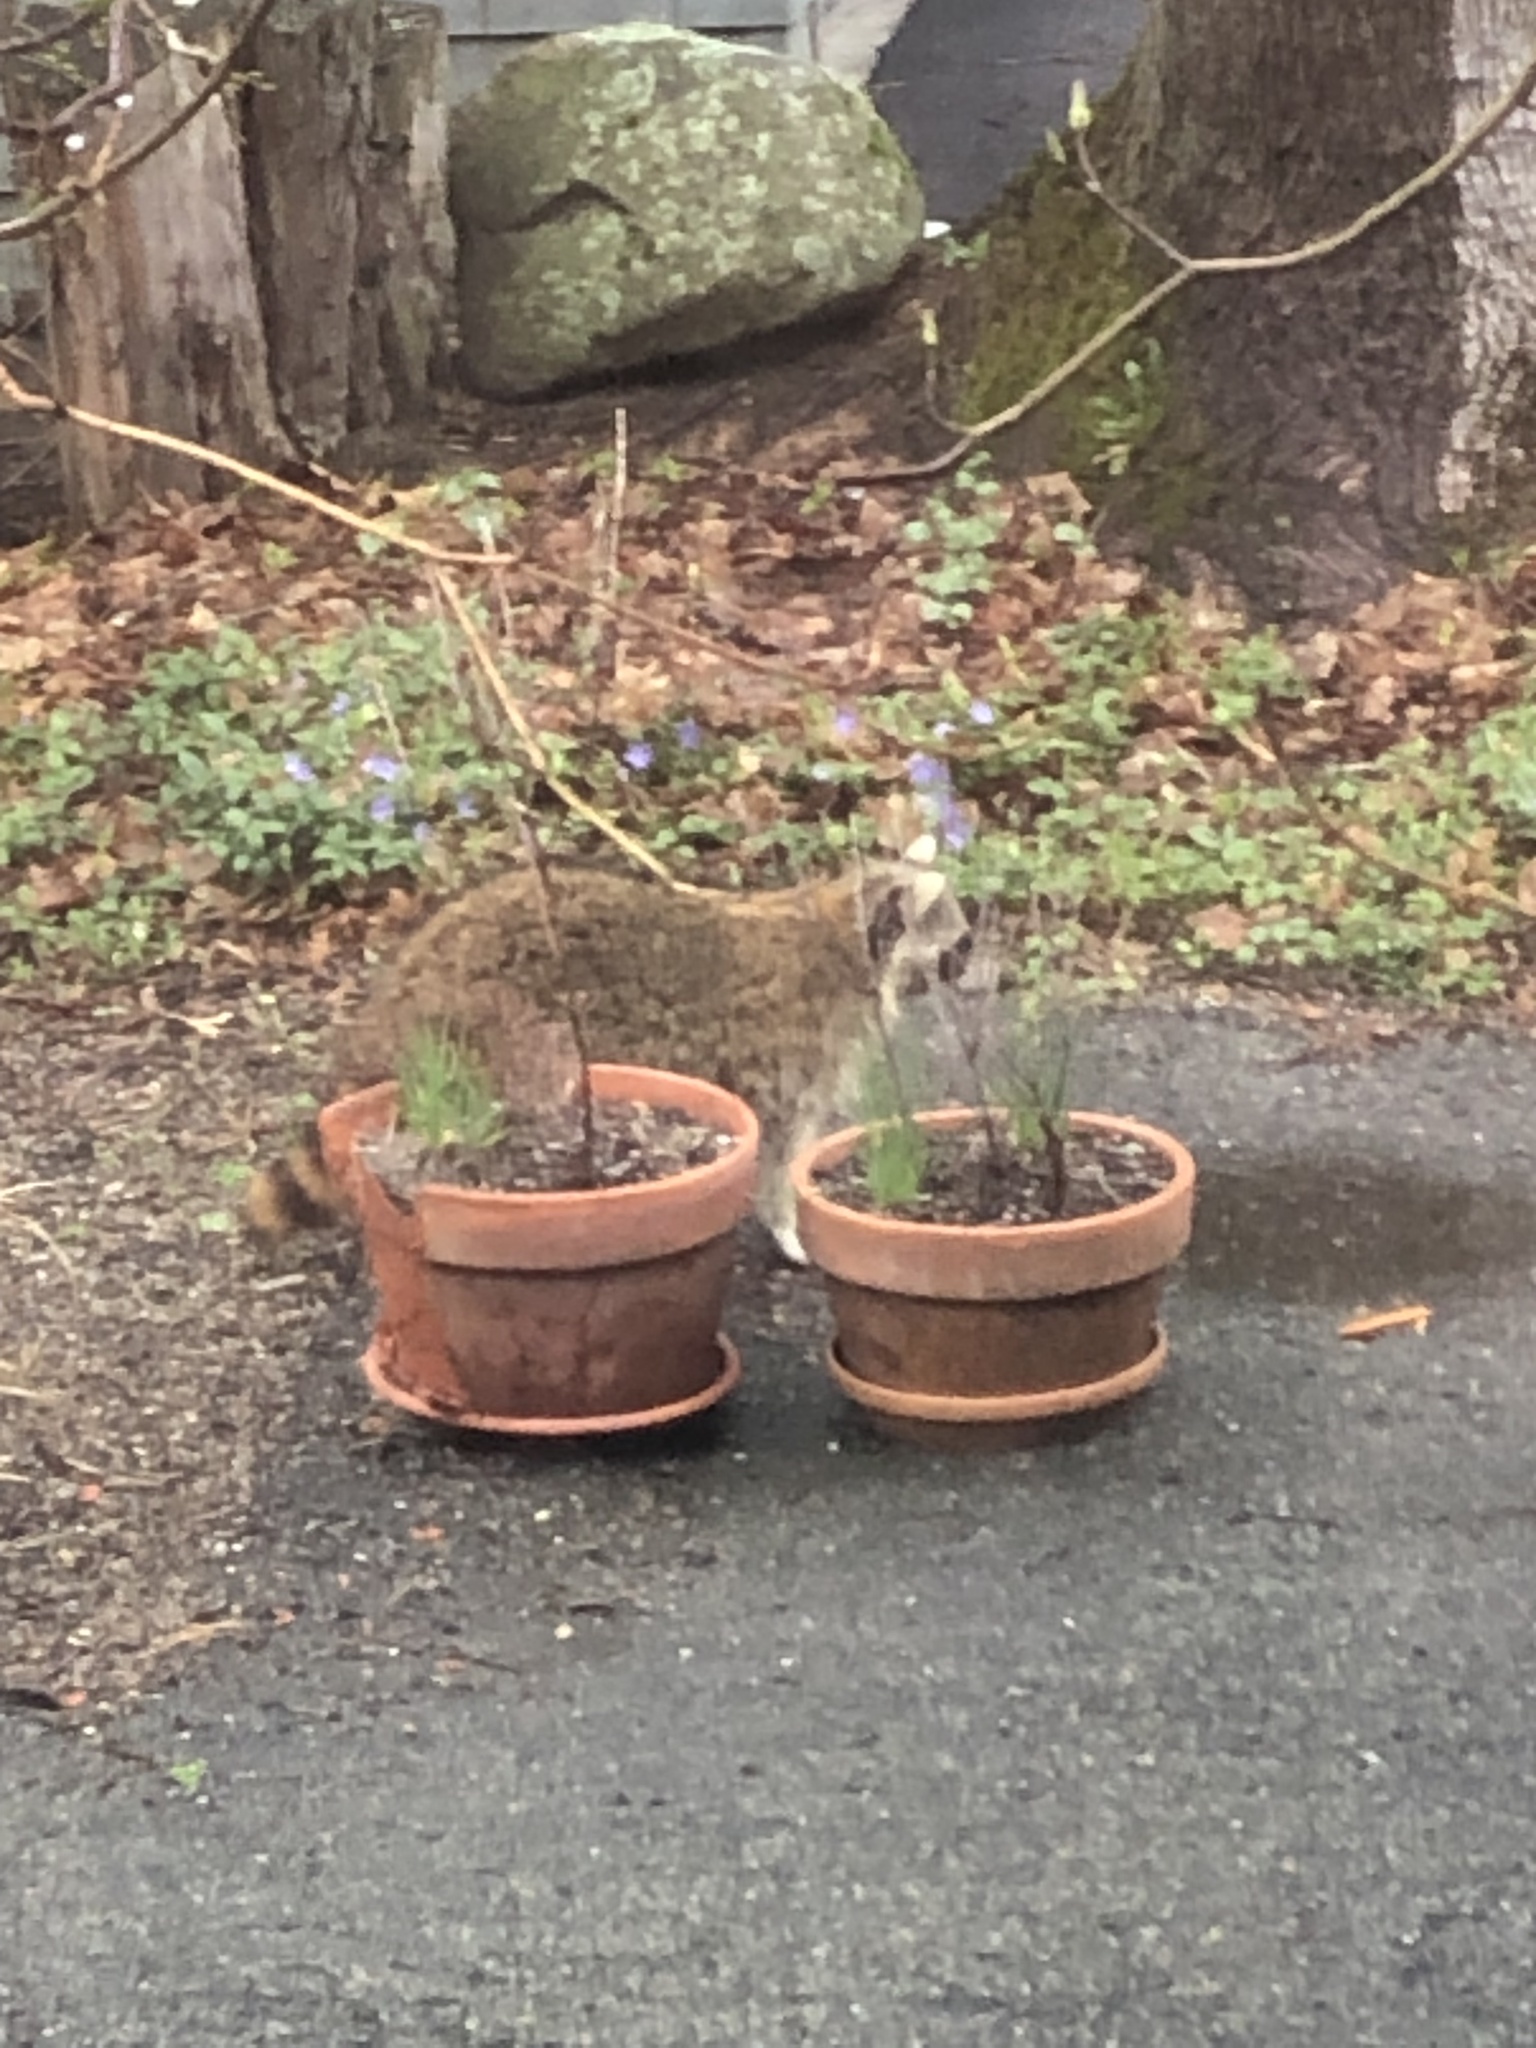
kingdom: Animalia
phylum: Chordata
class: Mammalia
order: Carnivora
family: Procyonidae
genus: Procyon
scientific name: Procyon lotor
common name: Raccoon
